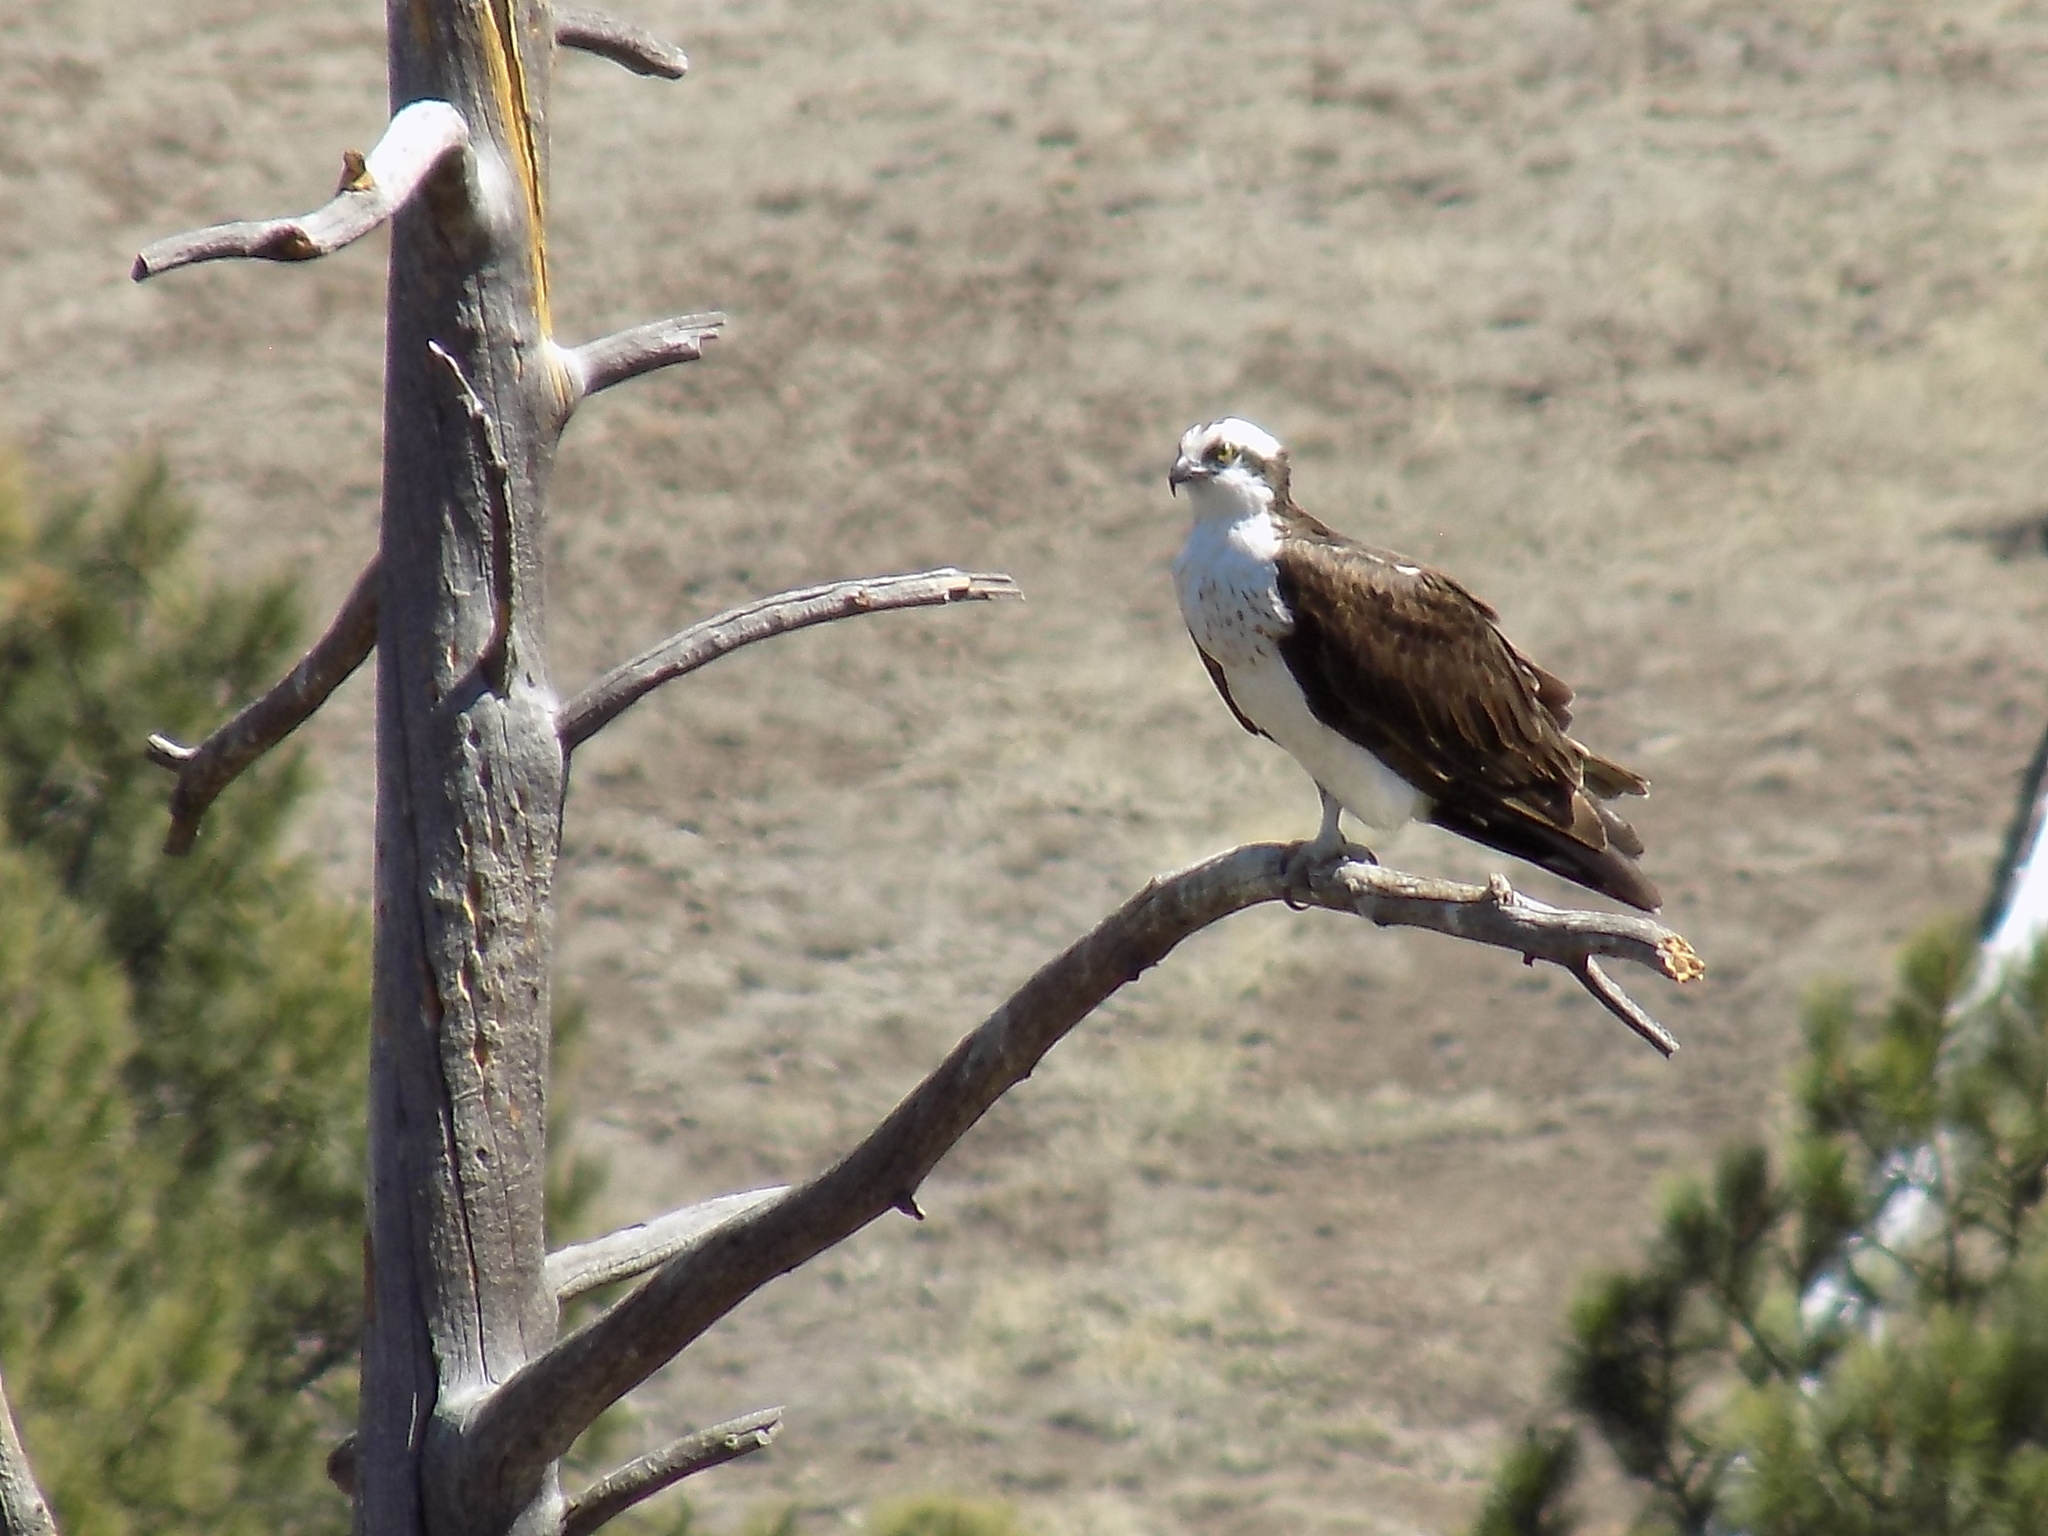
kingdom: Animalia
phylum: Chordata
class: Aves
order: Accipitriformes
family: Pandionidae
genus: Pandion
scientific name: Pandion haliaetus
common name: Osprey
